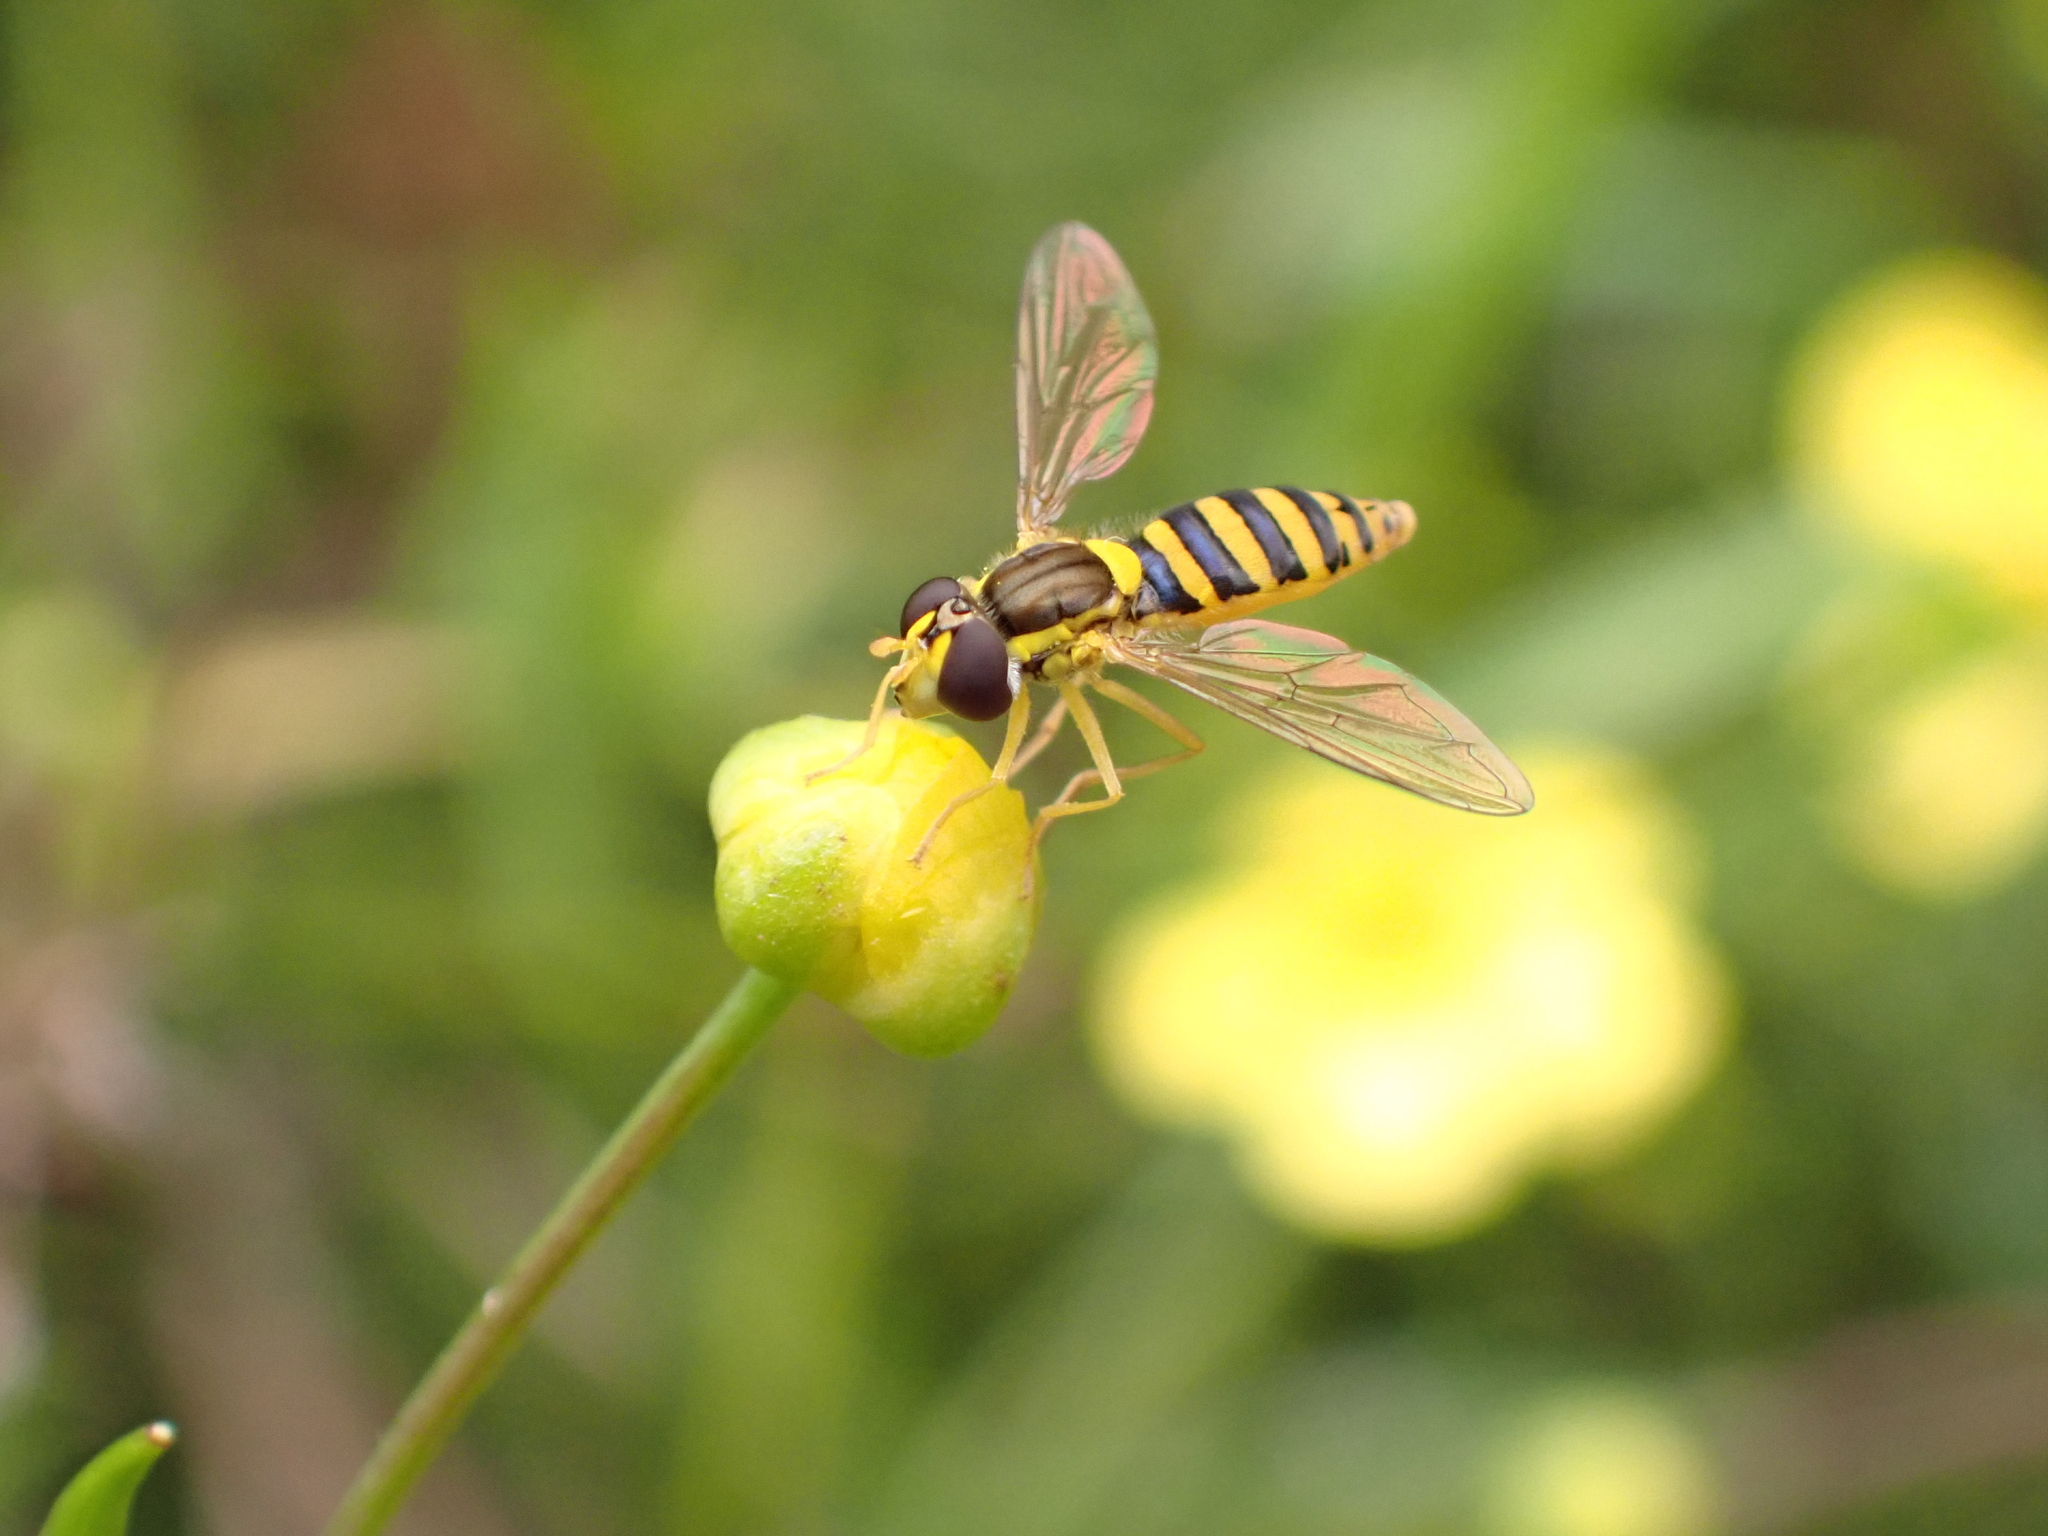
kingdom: Animalia
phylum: Arthropoda
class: Insecta
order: Diptera
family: Syrphidae
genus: Sphaerophoria
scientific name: Sphaerophoria
